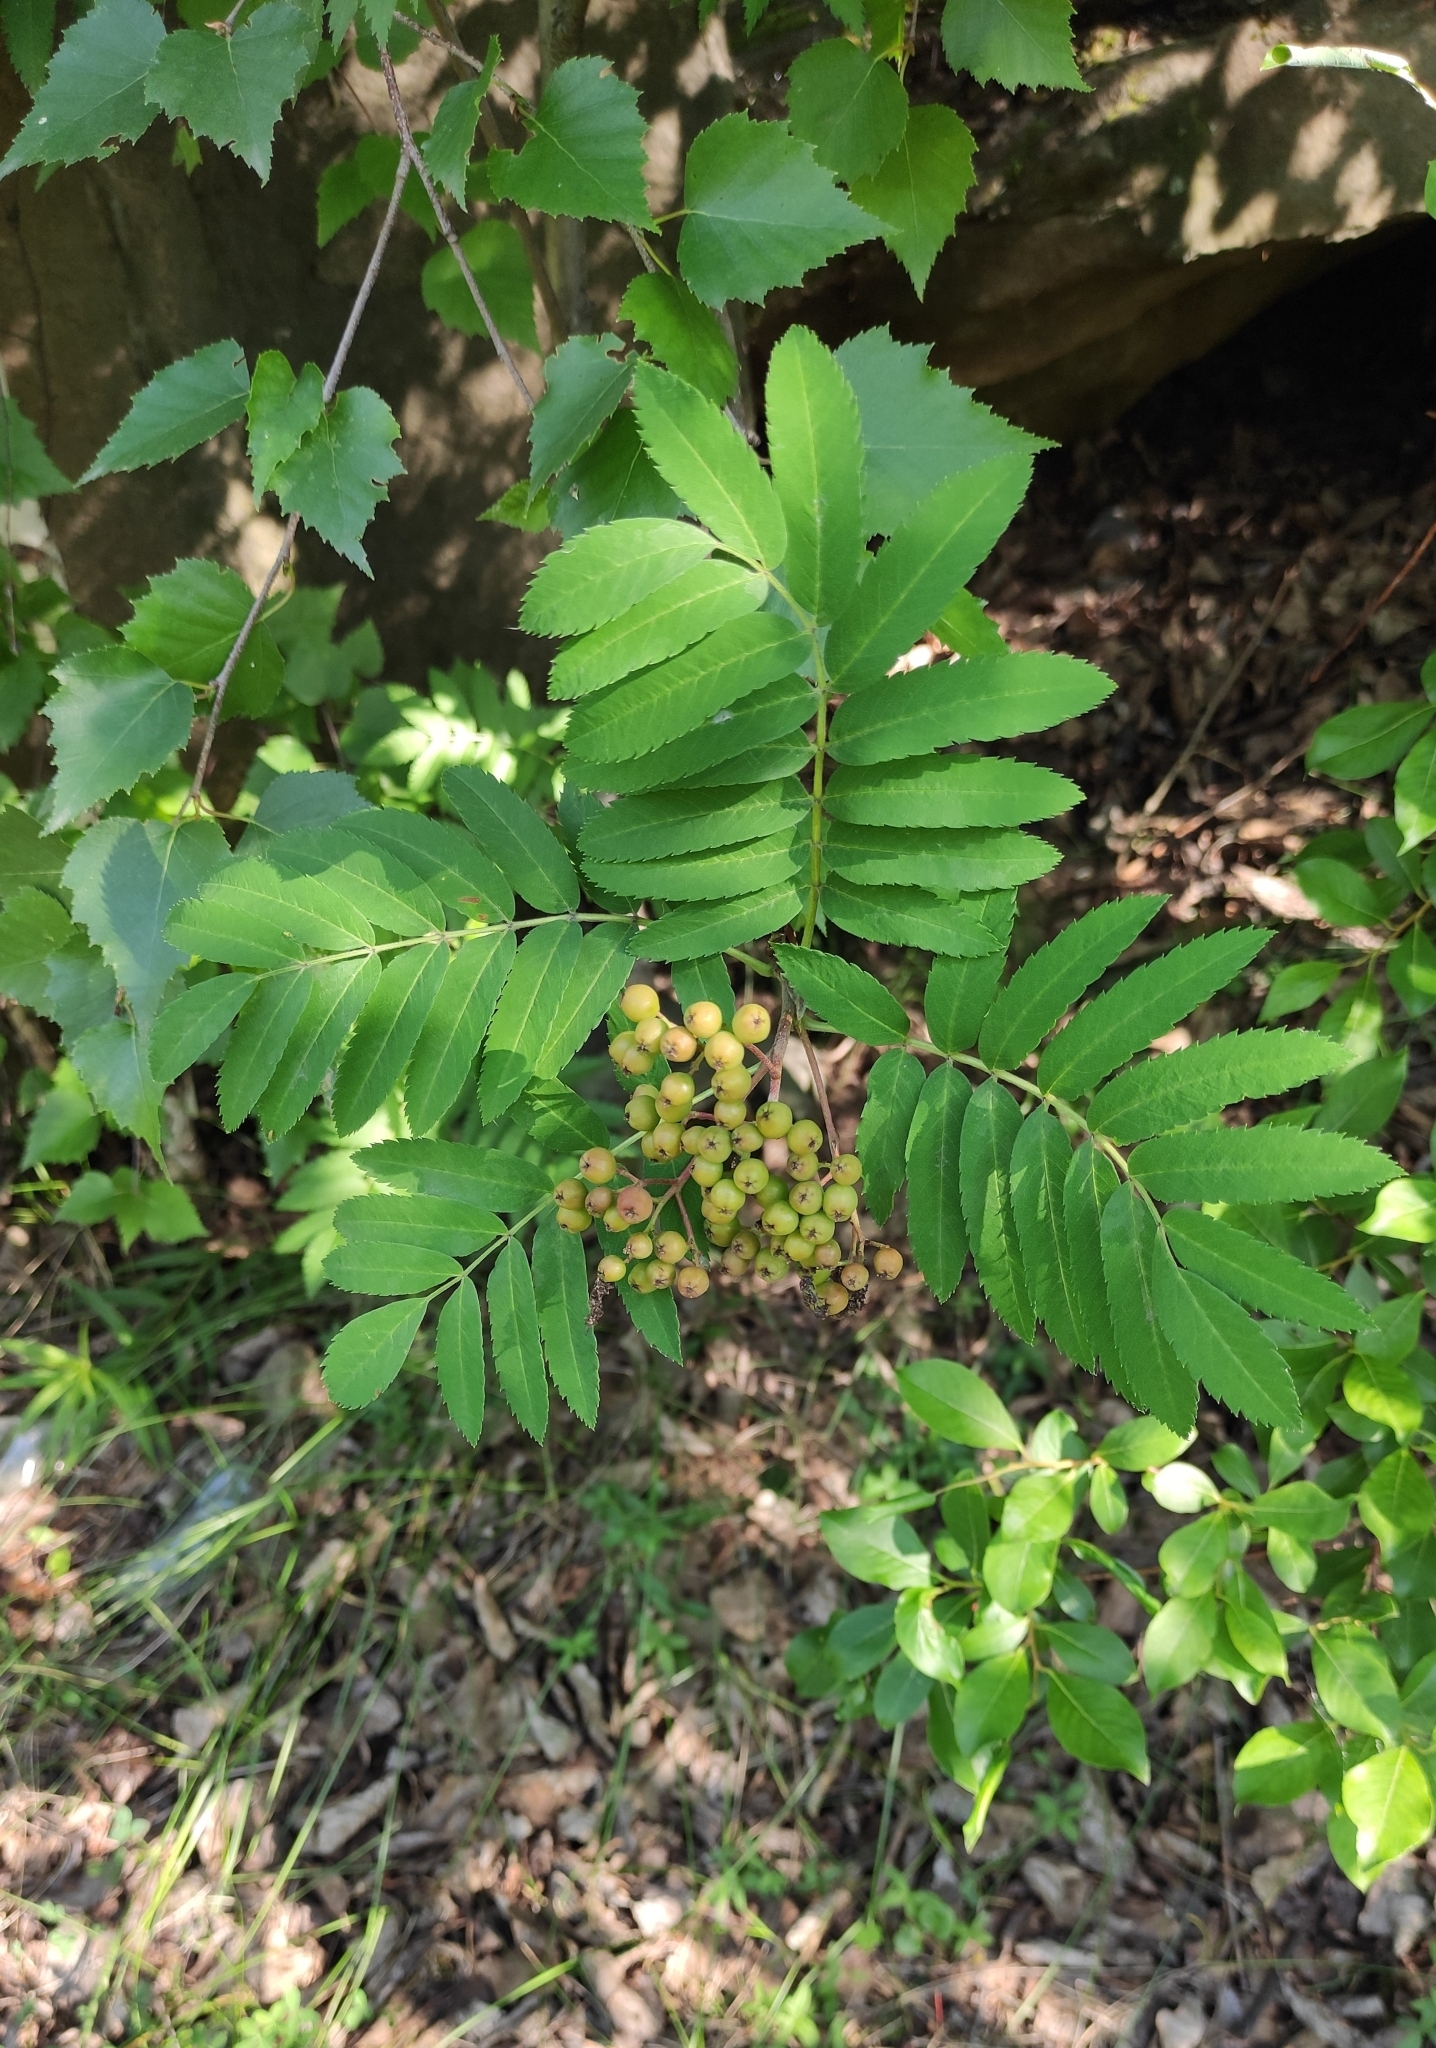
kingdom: Plantae
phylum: Tracheophyta
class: Magnoliopsida
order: Rosales
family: Rosaceae
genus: Sorbus
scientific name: Sorbus aucuparia
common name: Rowan
